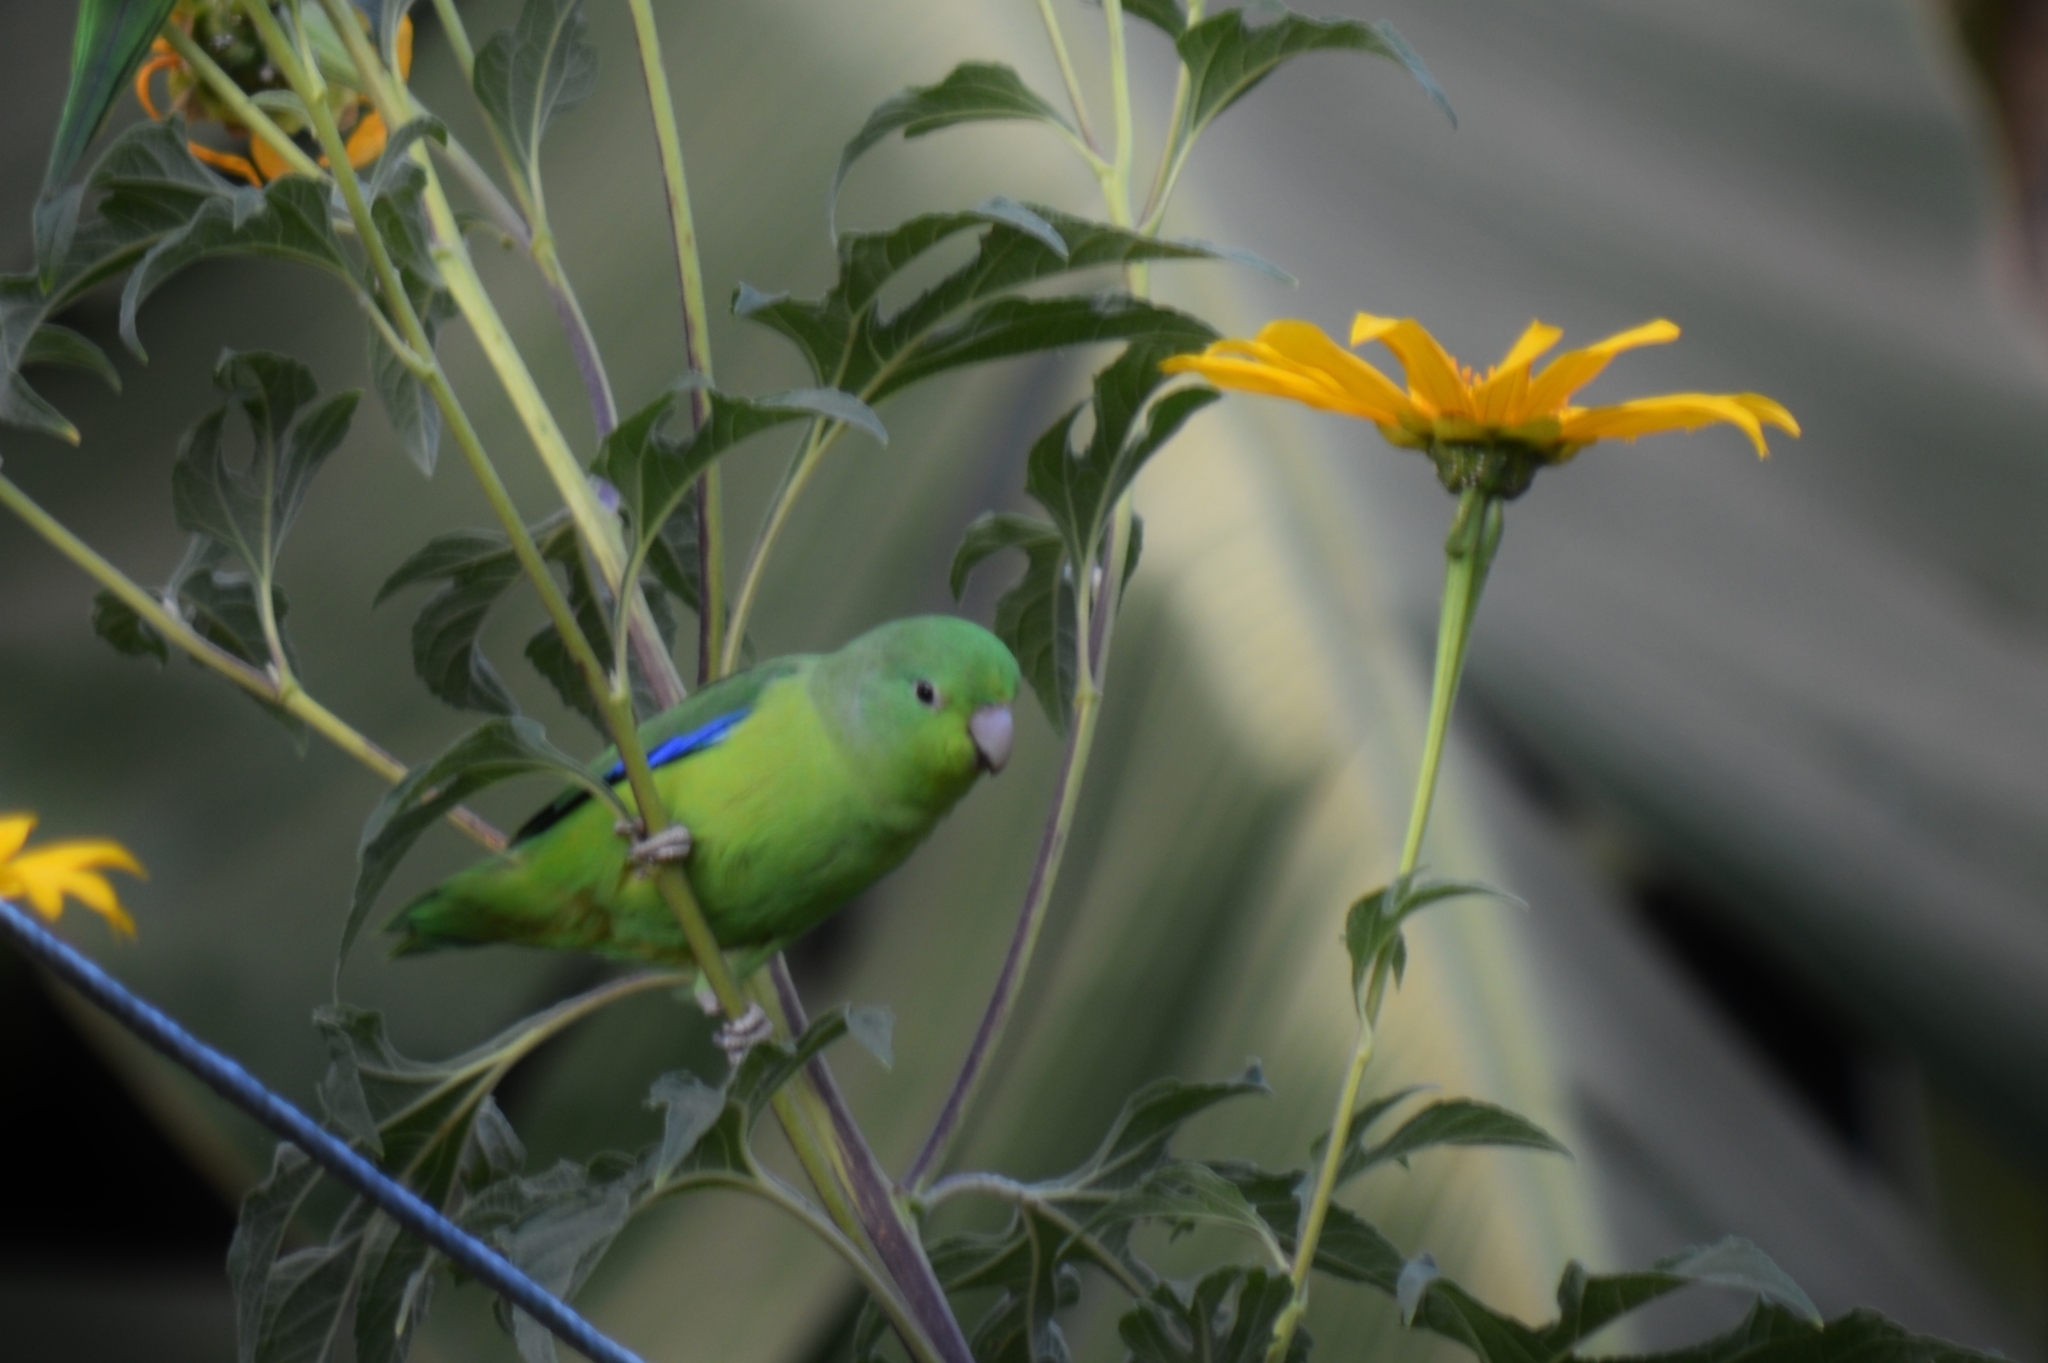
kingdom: Animalia
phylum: Chordata
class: Aves
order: Psittaciformes
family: Psittacidae
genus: Forpus
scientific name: Forpus xanthopterygius
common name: Blue-winged parrotlet
